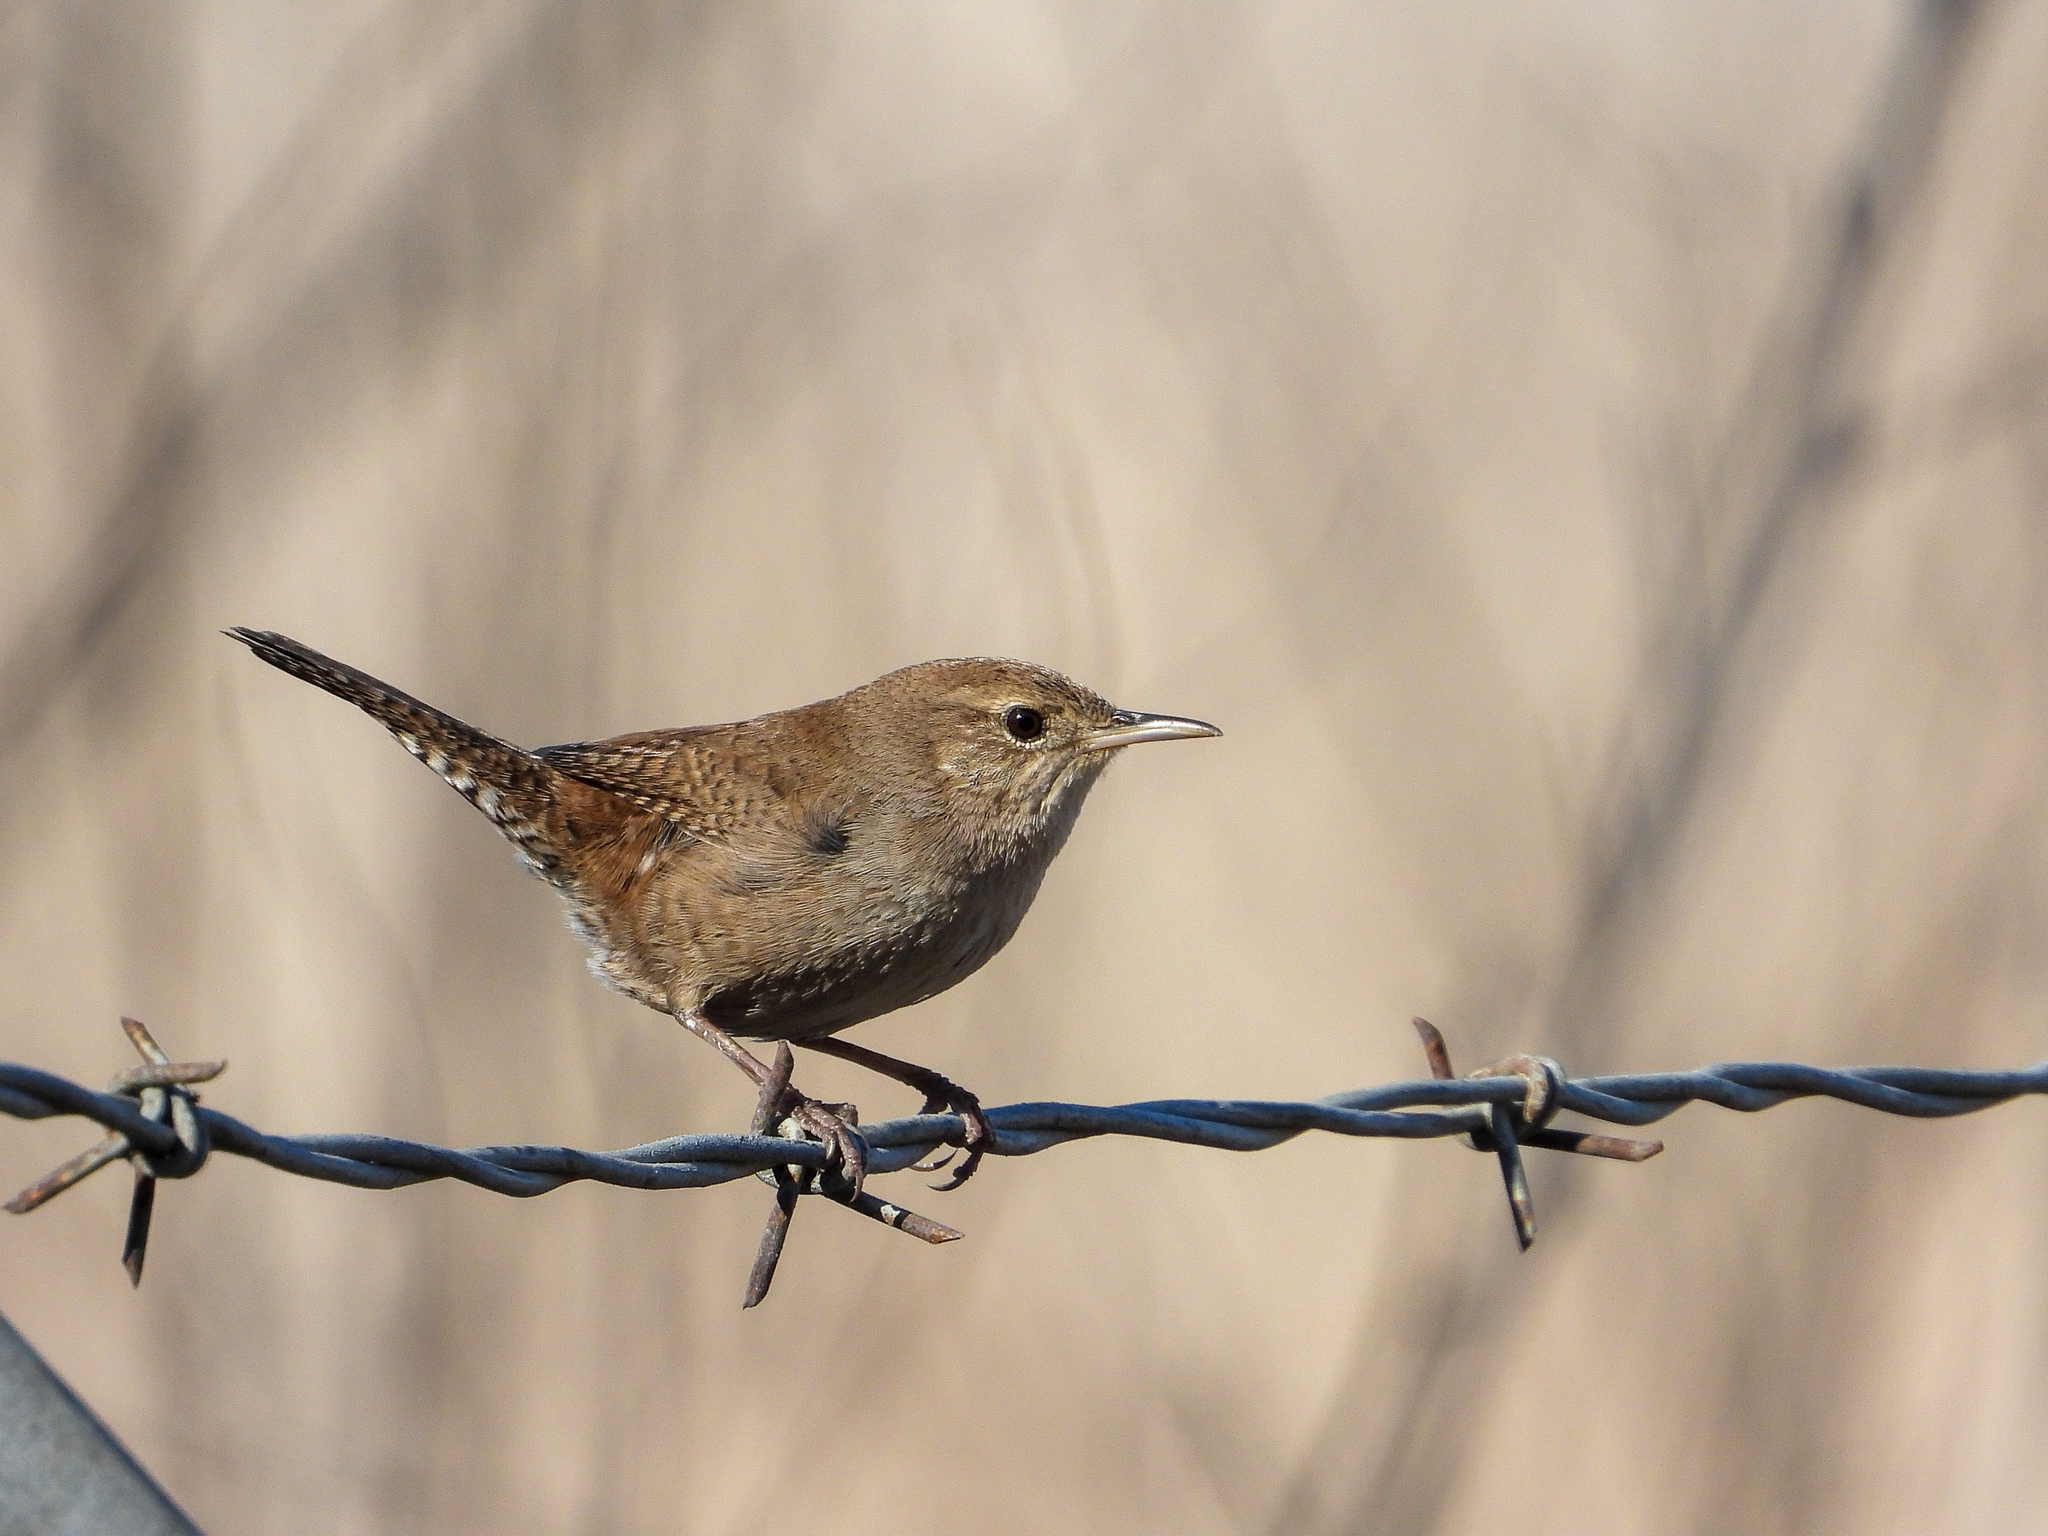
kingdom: Animalia
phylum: Chordata
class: Aves
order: Passeriformes
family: Troglodytidae
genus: Troglodytes
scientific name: Troglodytes aedon
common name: House wren
